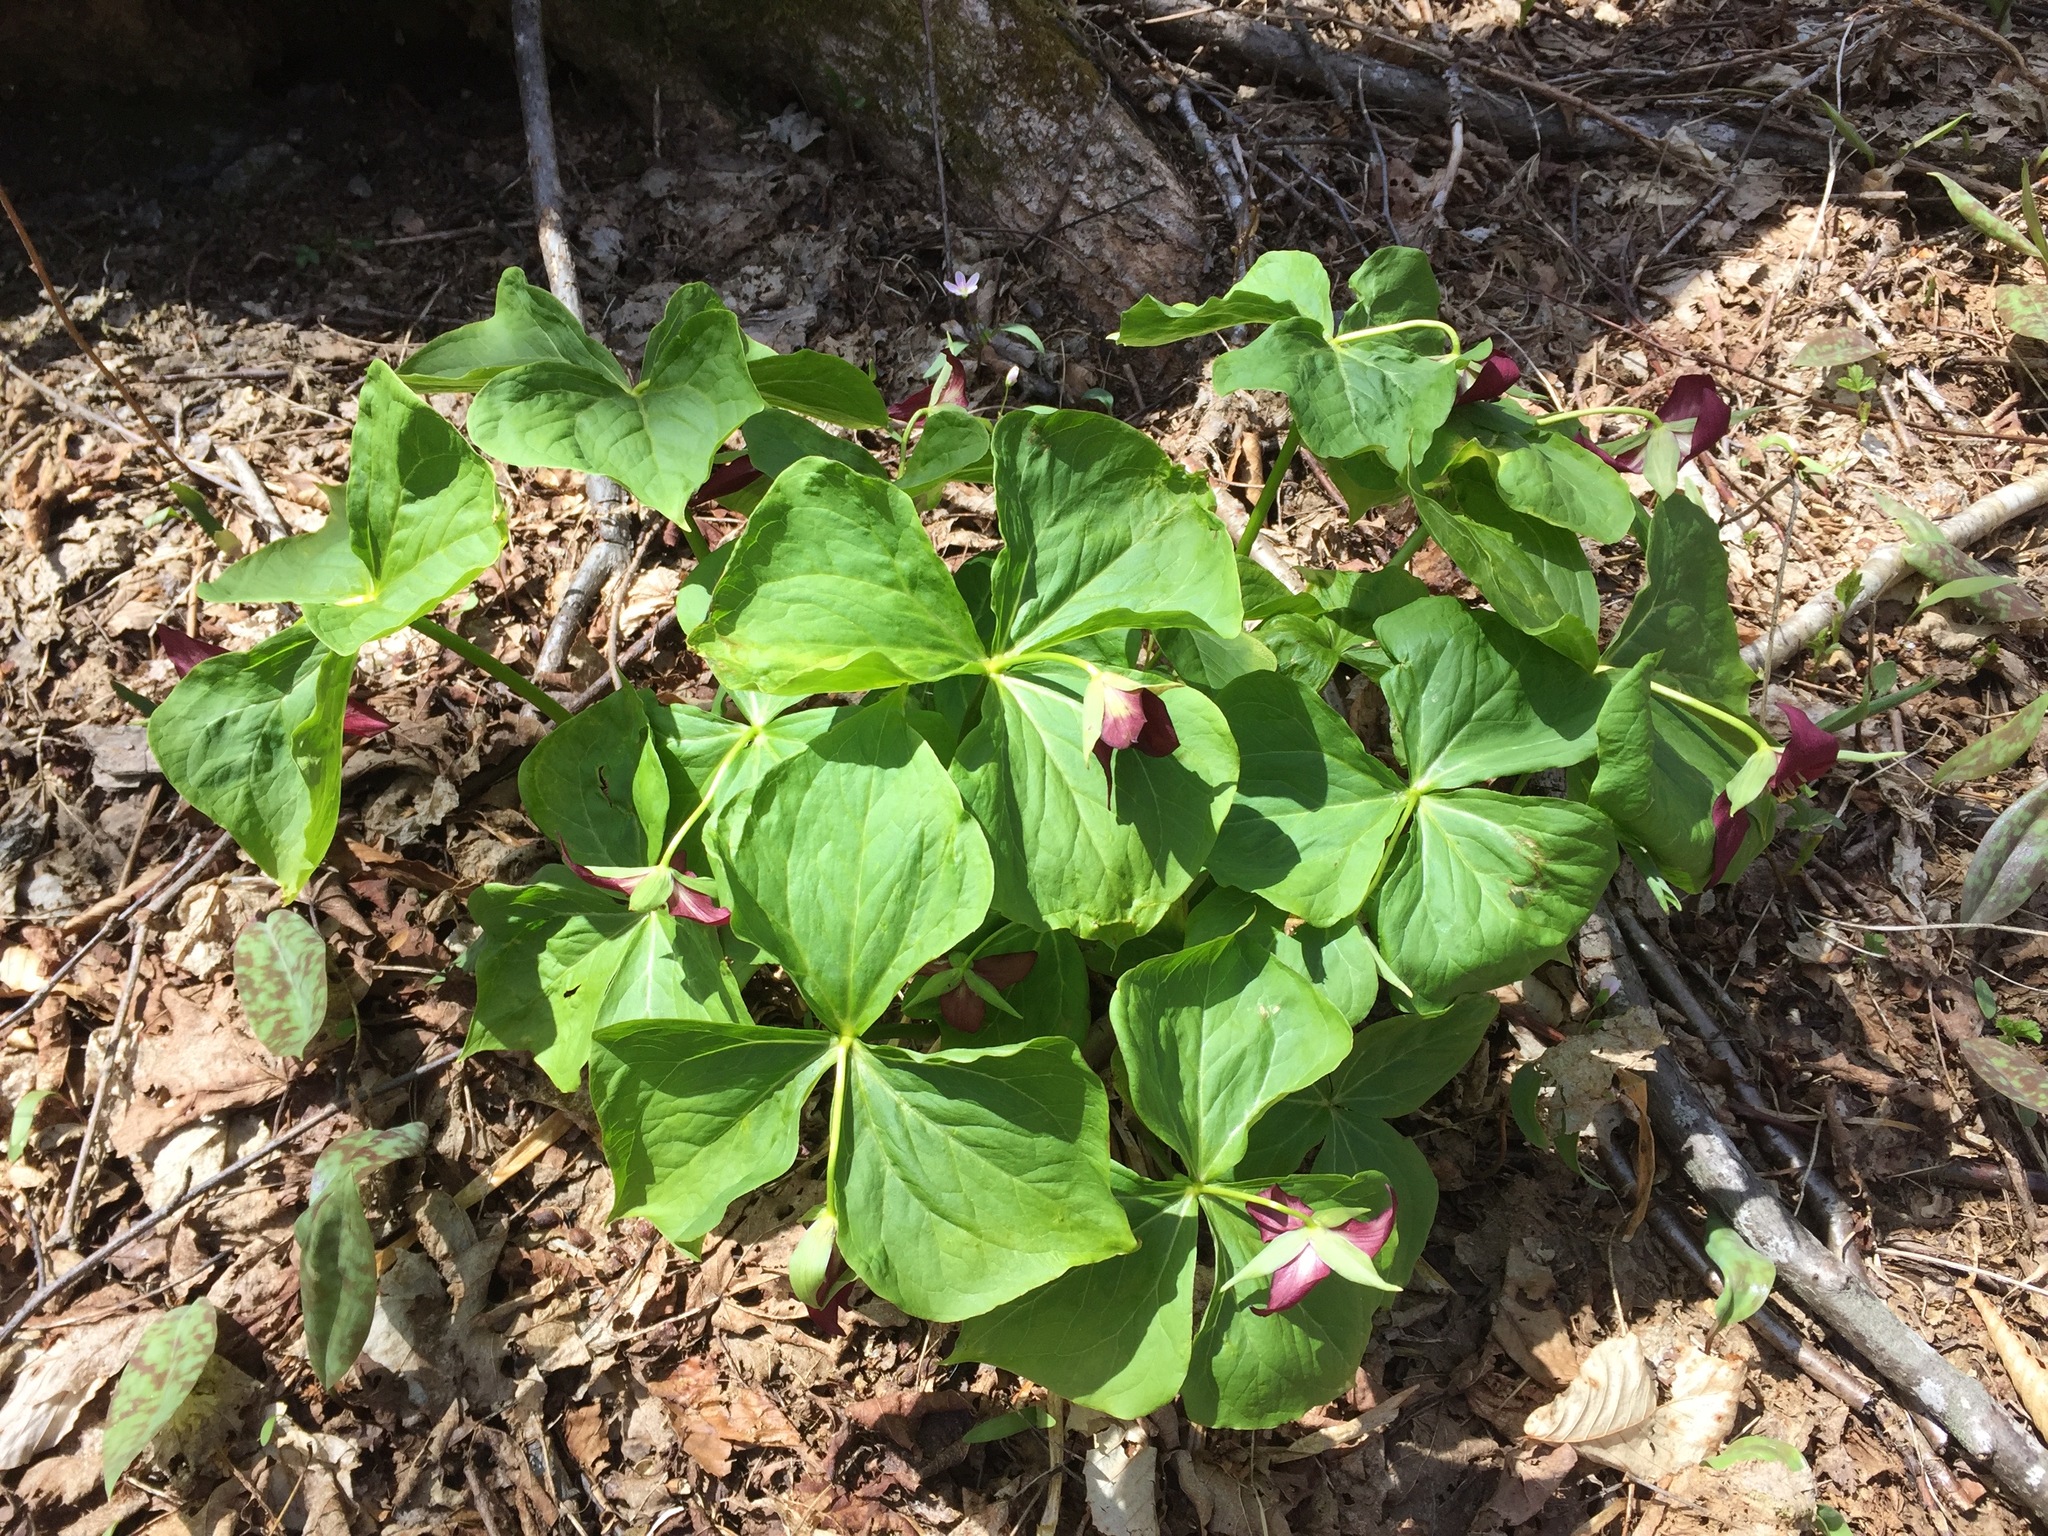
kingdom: Plantae
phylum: Tracheophyta
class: Liliopsida
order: Liliales
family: Melanthiaceae
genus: Trillium
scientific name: Trillium erectum
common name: Purple trillium
